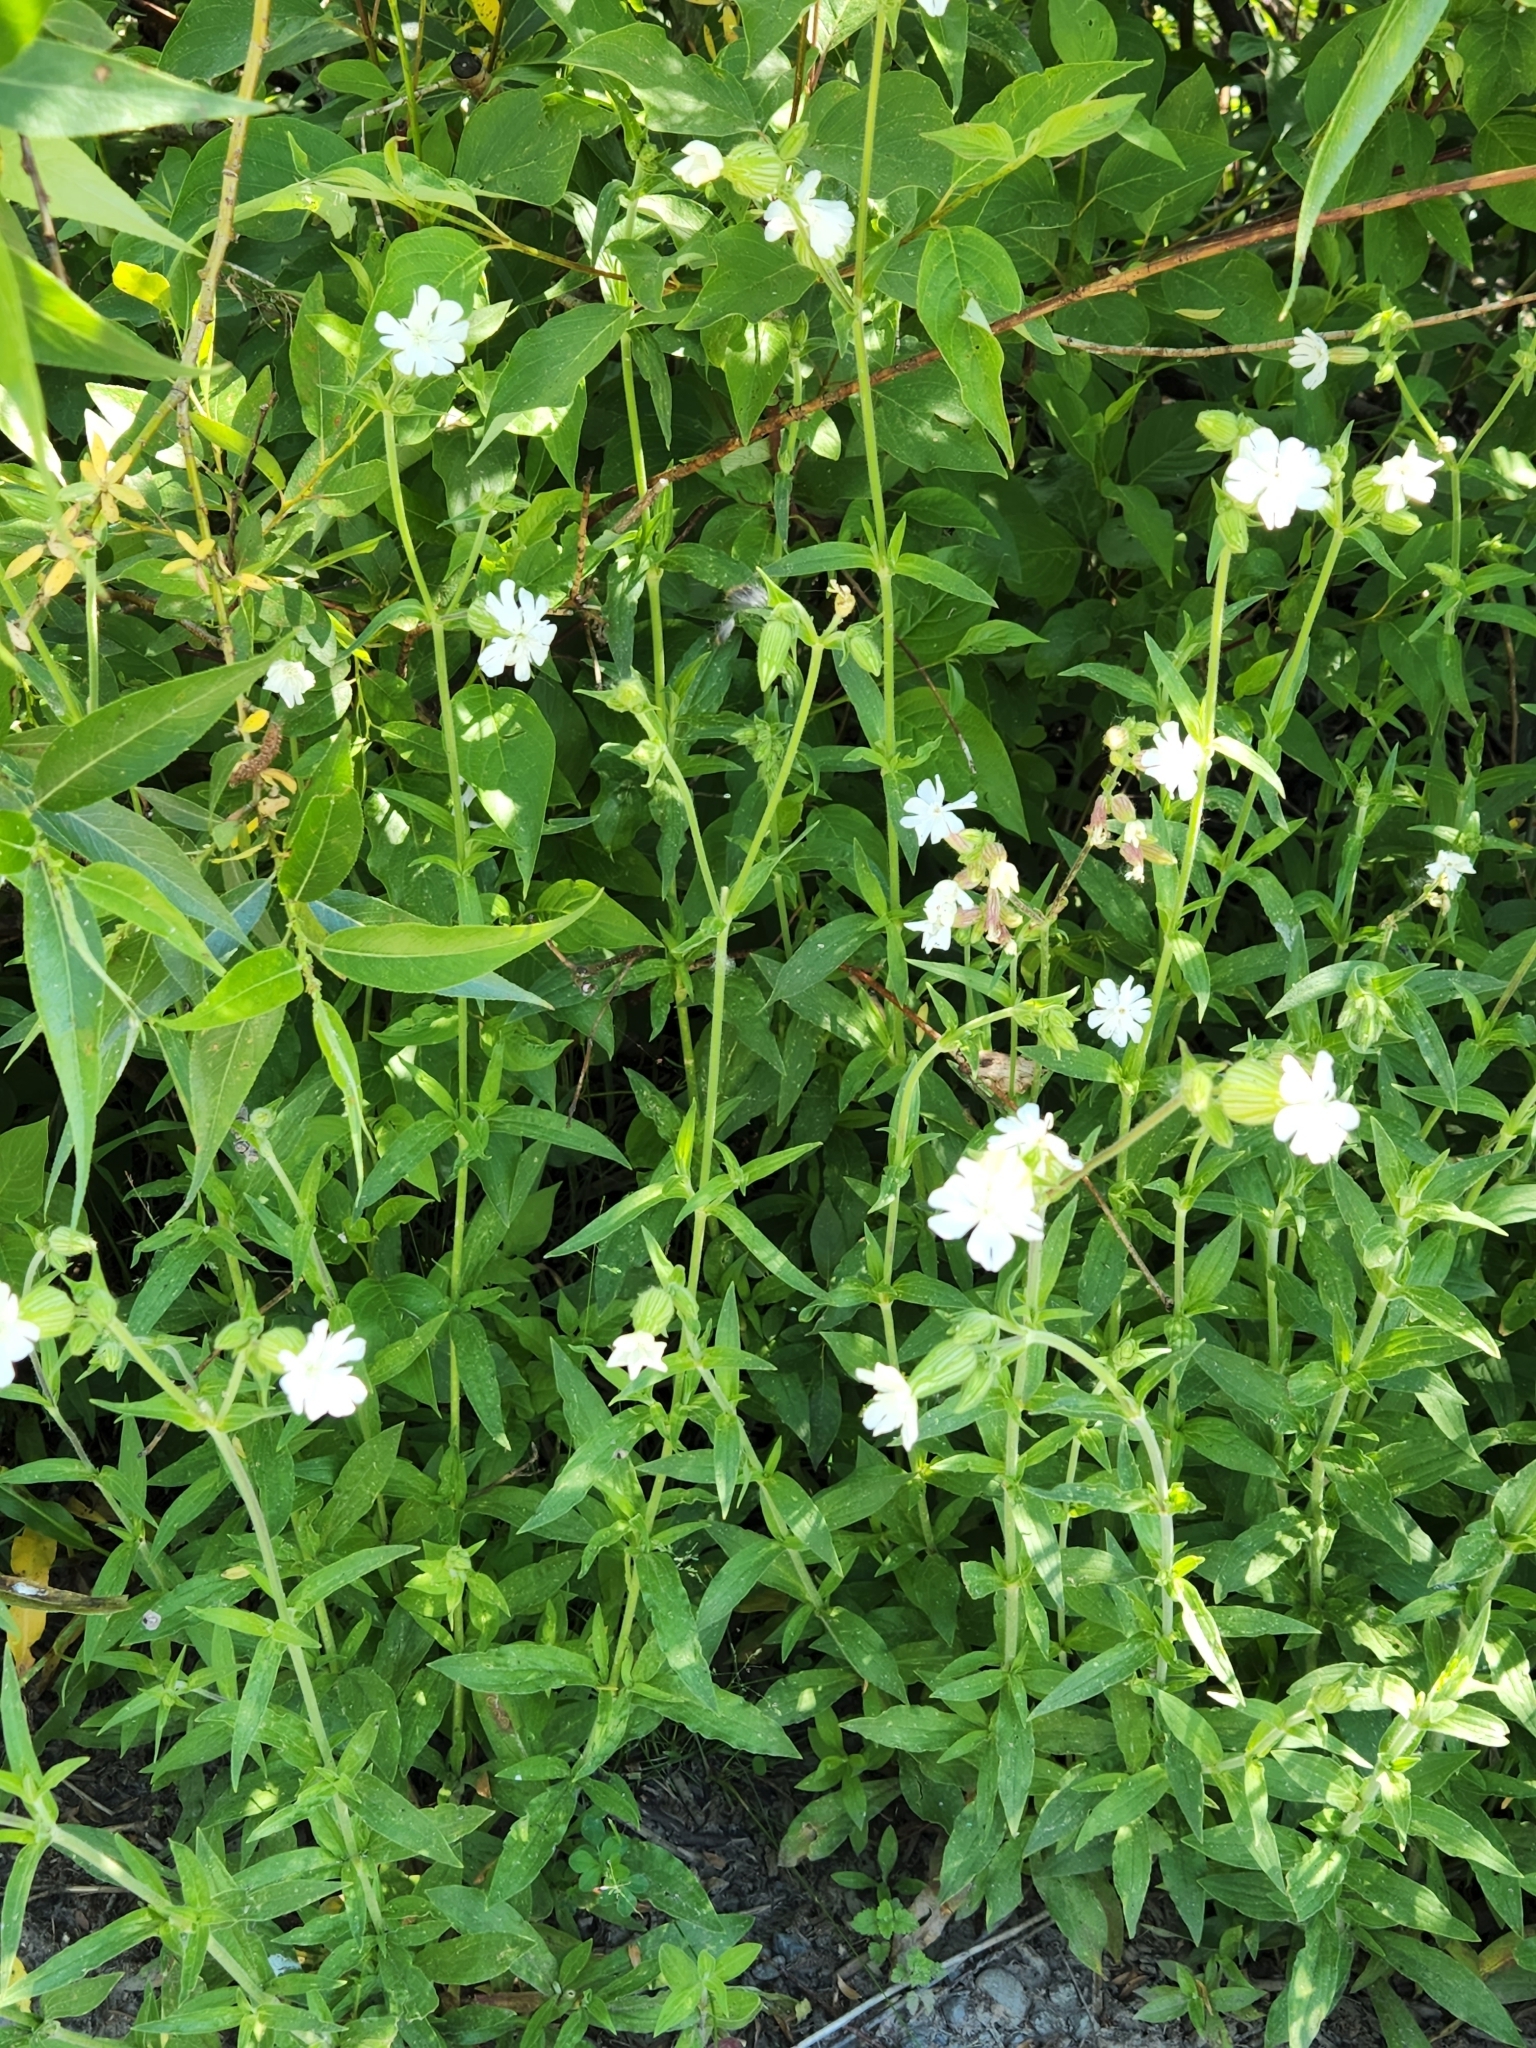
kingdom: Plantae
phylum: Tracheophyta
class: Magnoliopsida
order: Caryophyllales
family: Caryophyllaceae
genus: Silene
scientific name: Silene latifolia
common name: White campion
